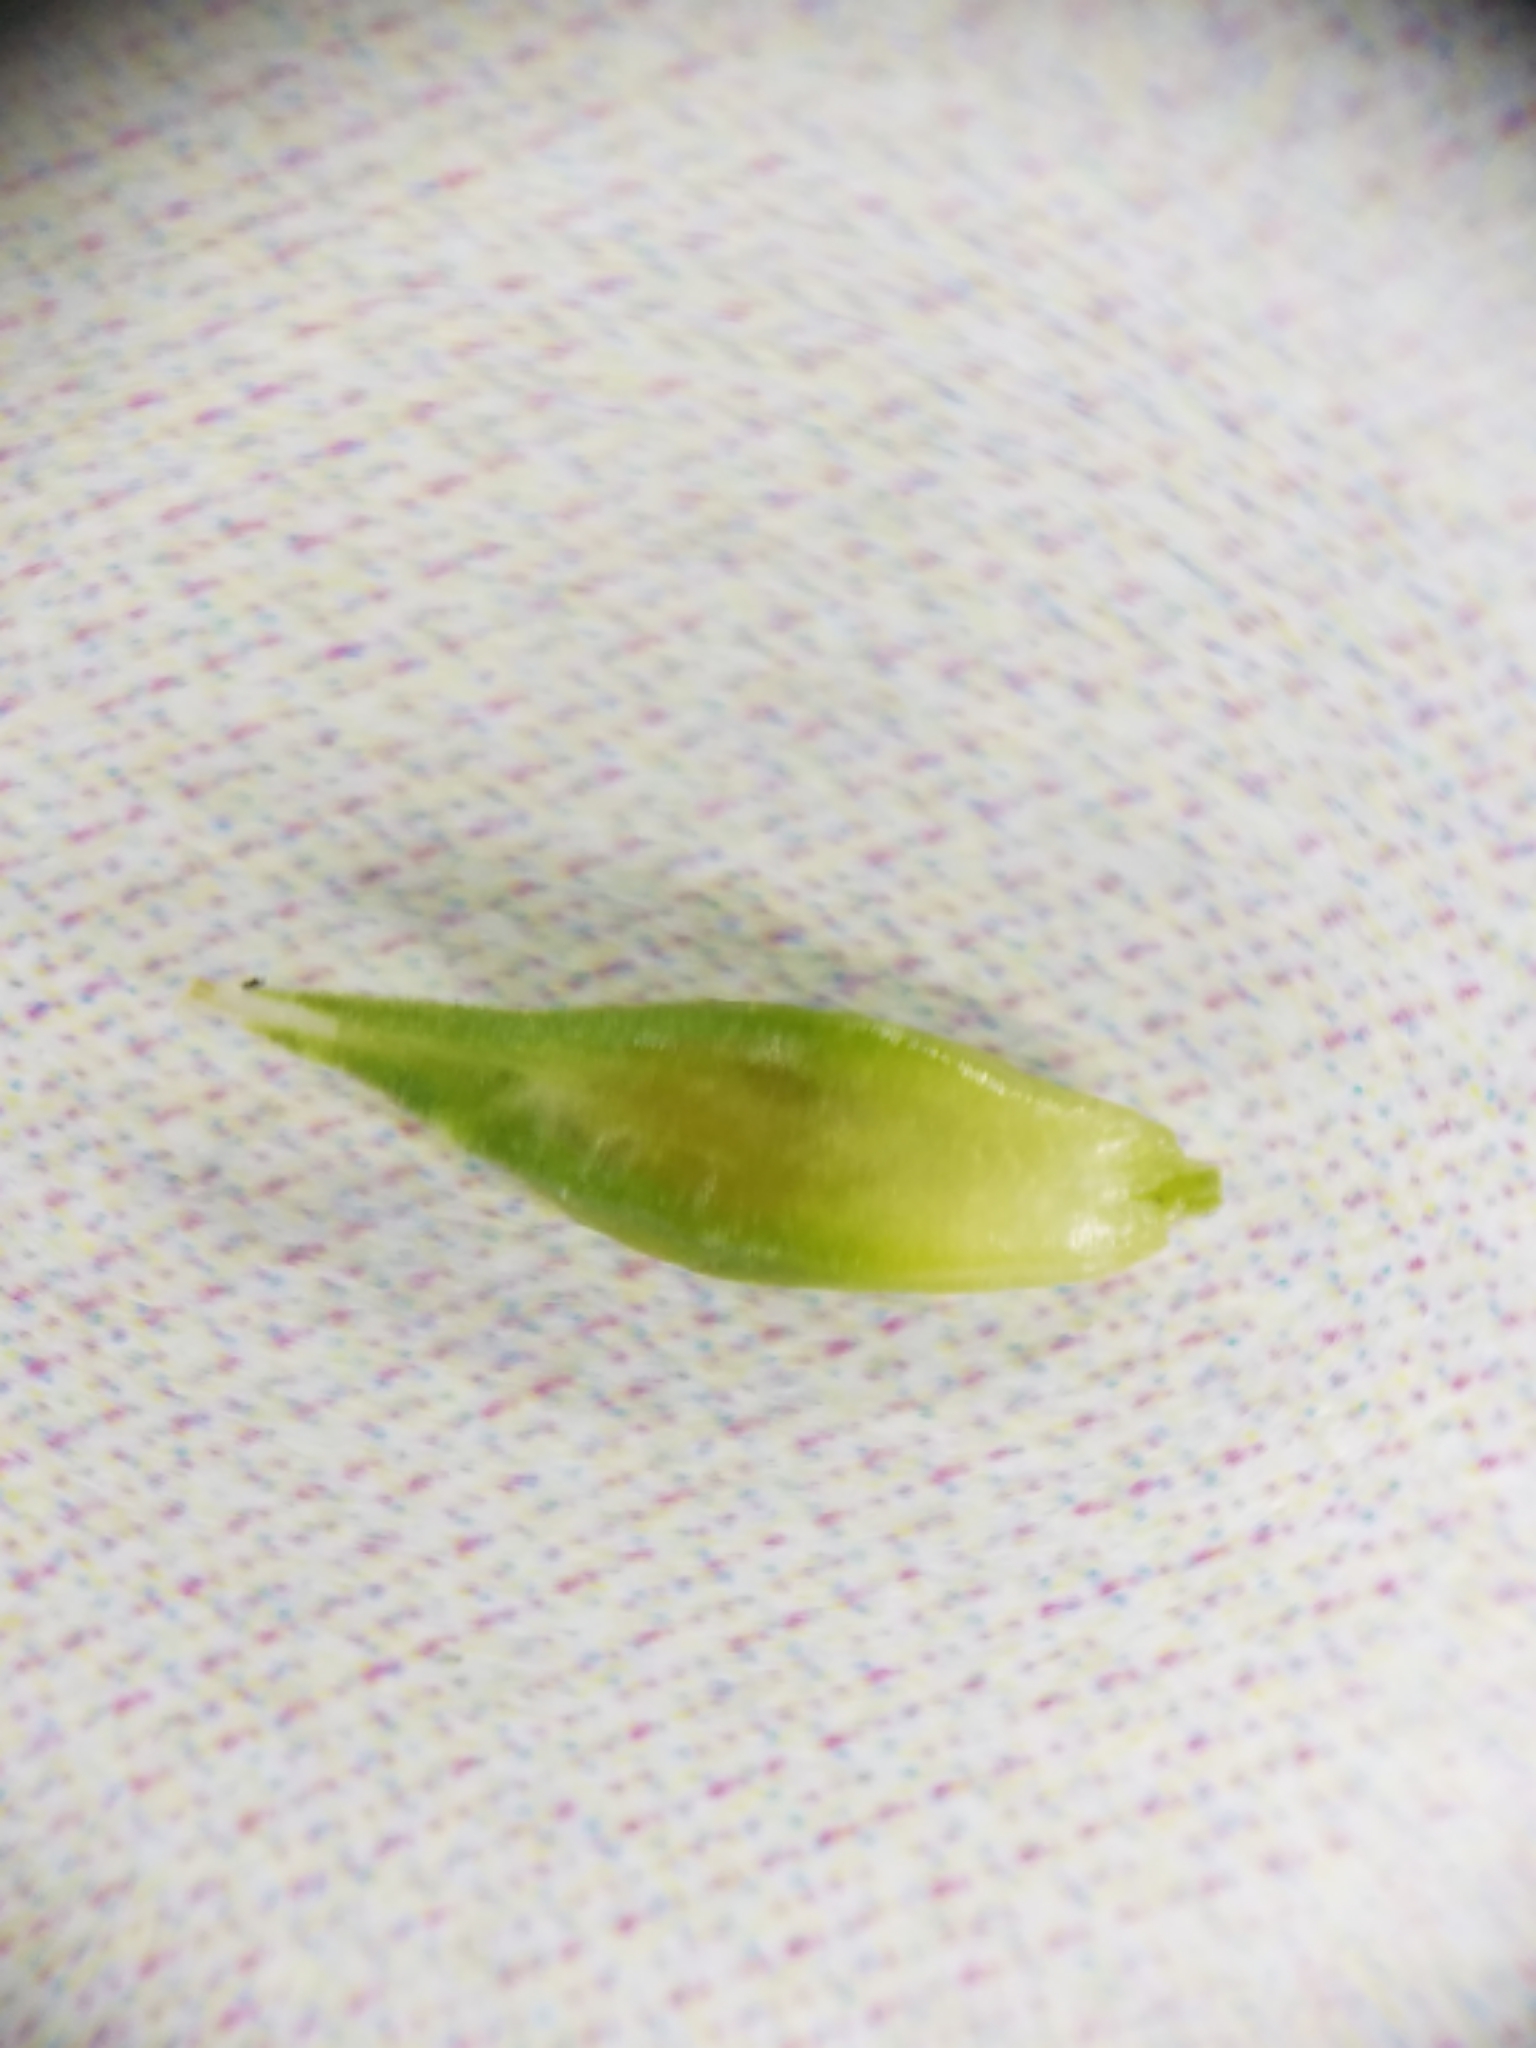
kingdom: Plantae
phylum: Tracheophyta
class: Liliopsida
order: Poales
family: Cyperaceae
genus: Carex
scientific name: Carex deweyana
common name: Dewey's sedge
